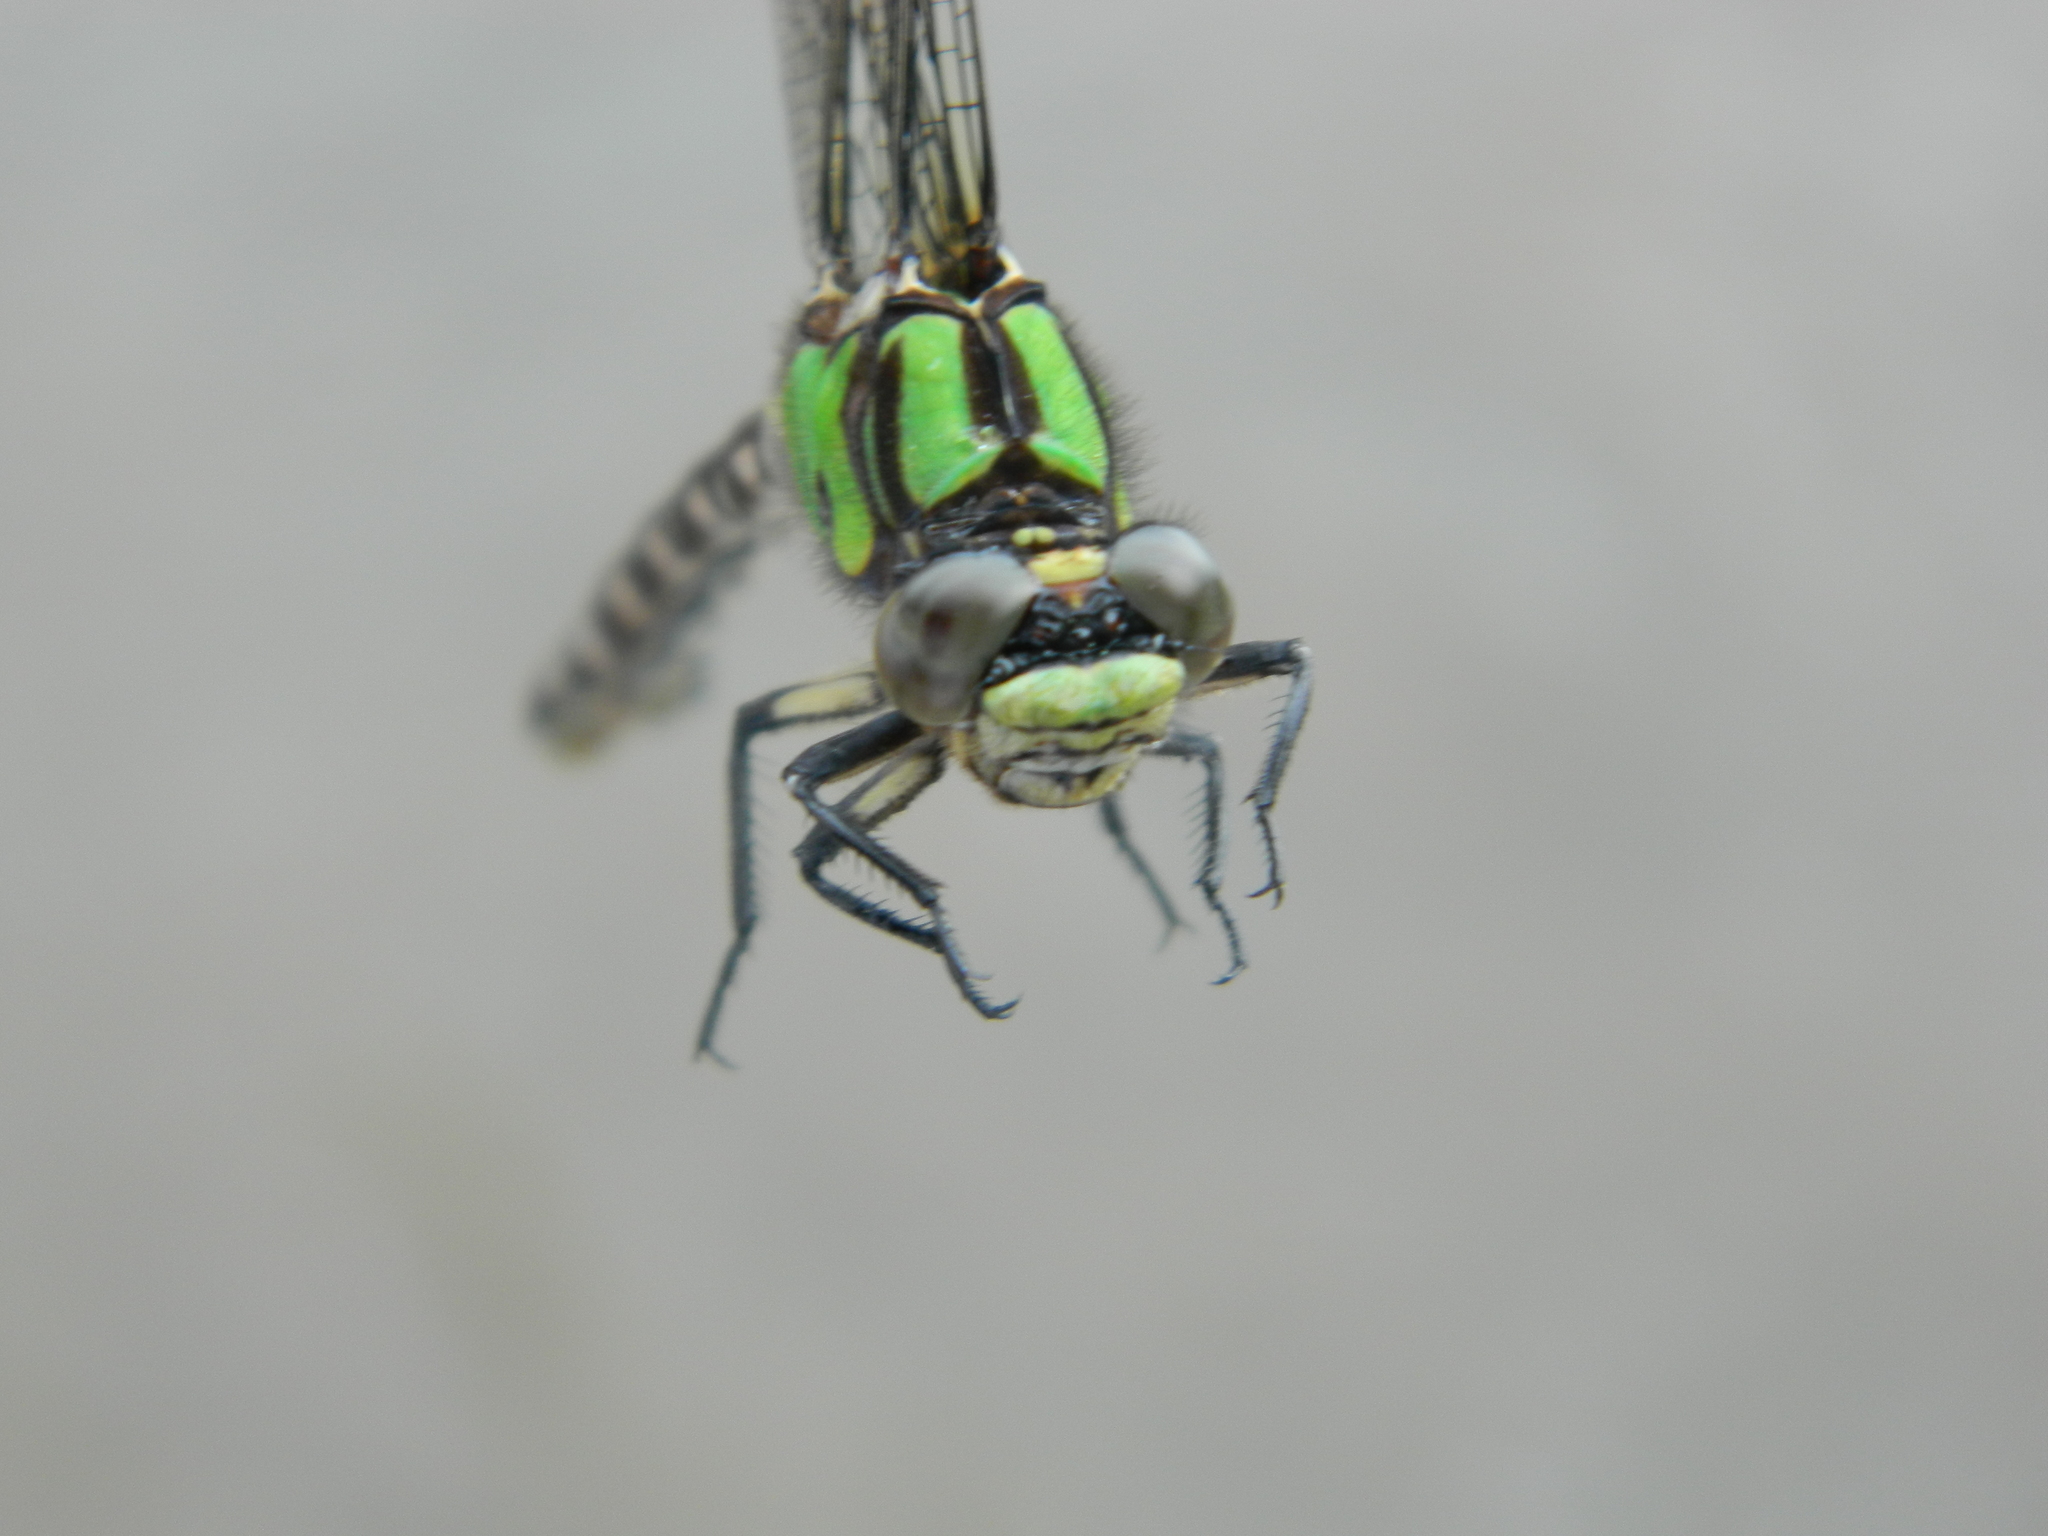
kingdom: Animalia
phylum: Arthropoda
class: Insecta
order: Odonata
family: Gomphidae
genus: Ophiogomphus
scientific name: Ophiogomphus colubrinus
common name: Boreal snaketail
